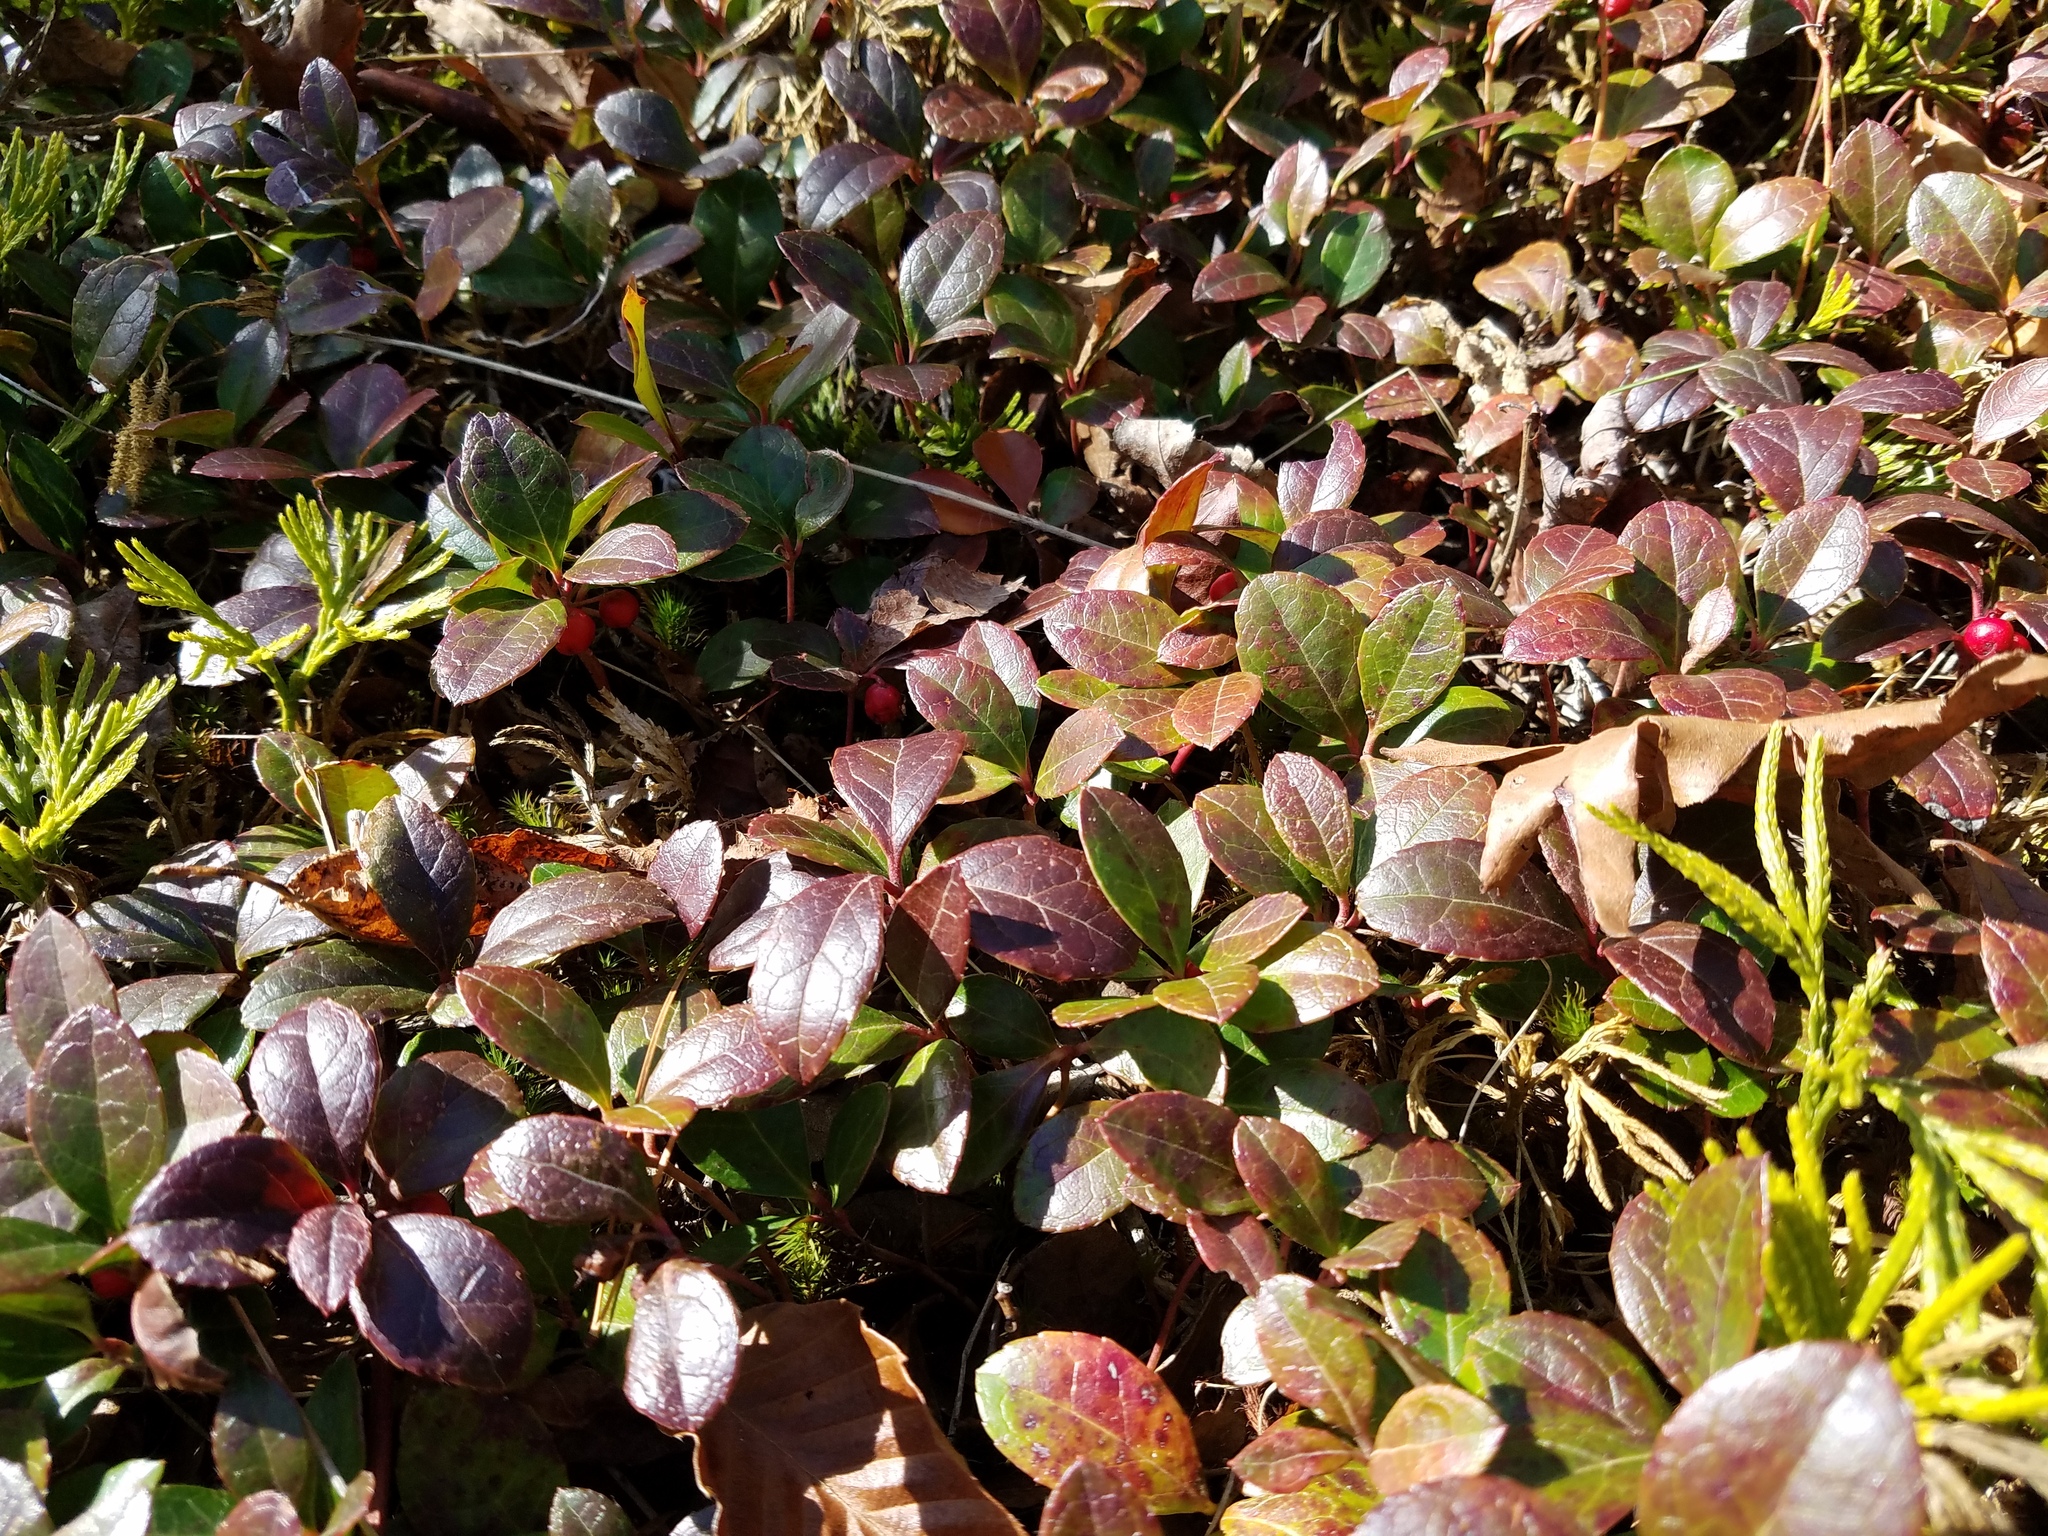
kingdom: Plantae
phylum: Tracheophyta
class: Magnoliopsida
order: Ericales
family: Ericaceae
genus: Gaultheria
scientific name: Gaultheria procumbens
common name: Checkerberry
